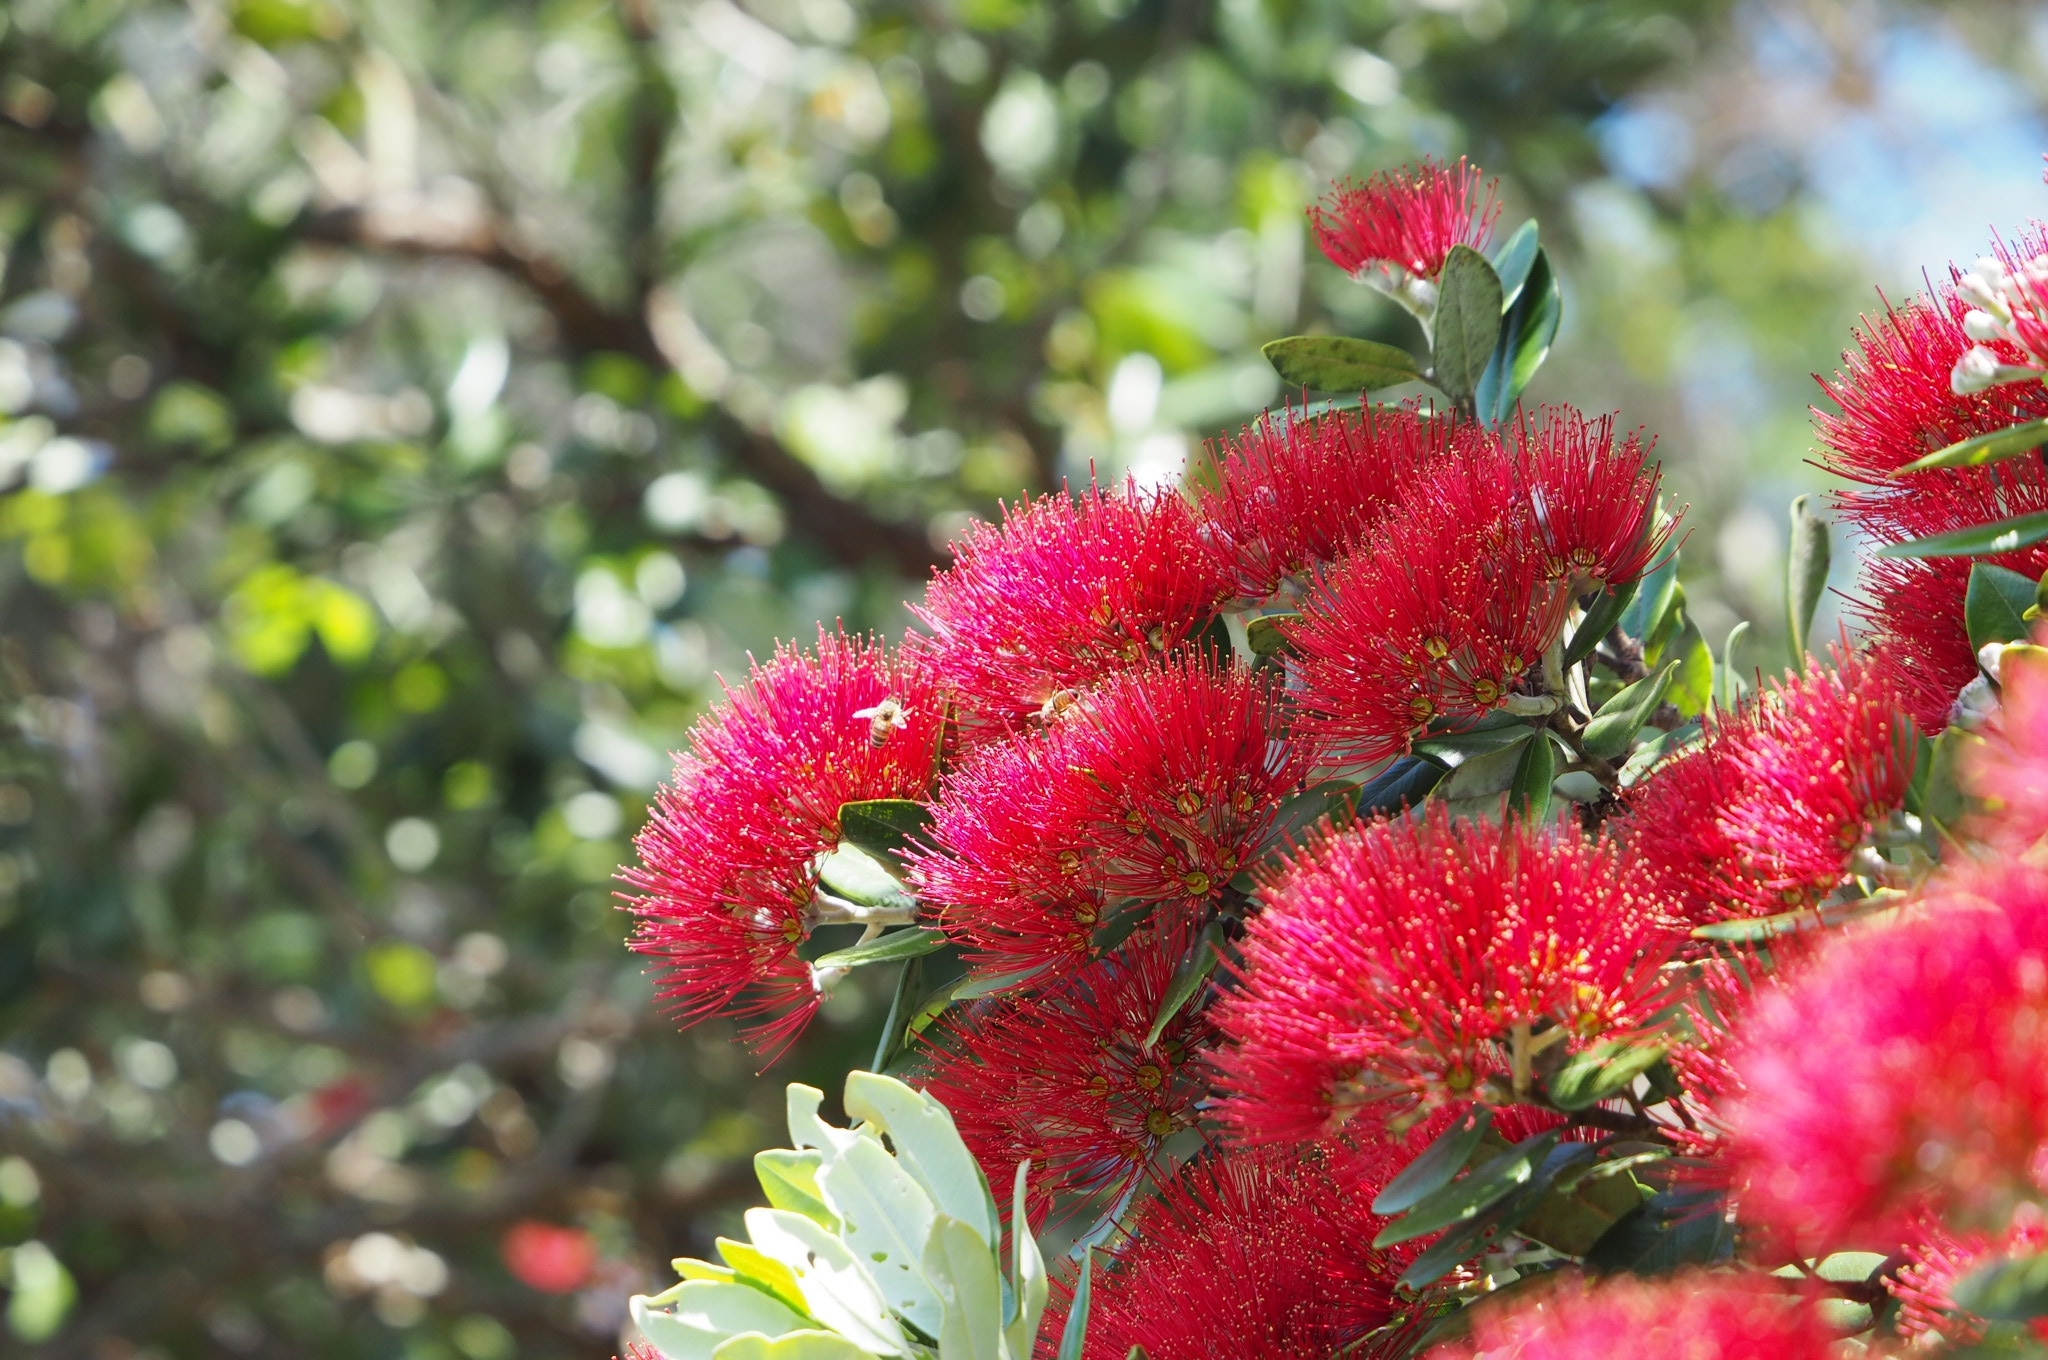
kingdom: Plantae
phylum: Tracheophyta
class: Magnoliopsida
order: Myrtales
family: Myrtaceae
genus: Metrosideros
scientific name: Metrosideros excelsa
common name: New zealand christmastree
